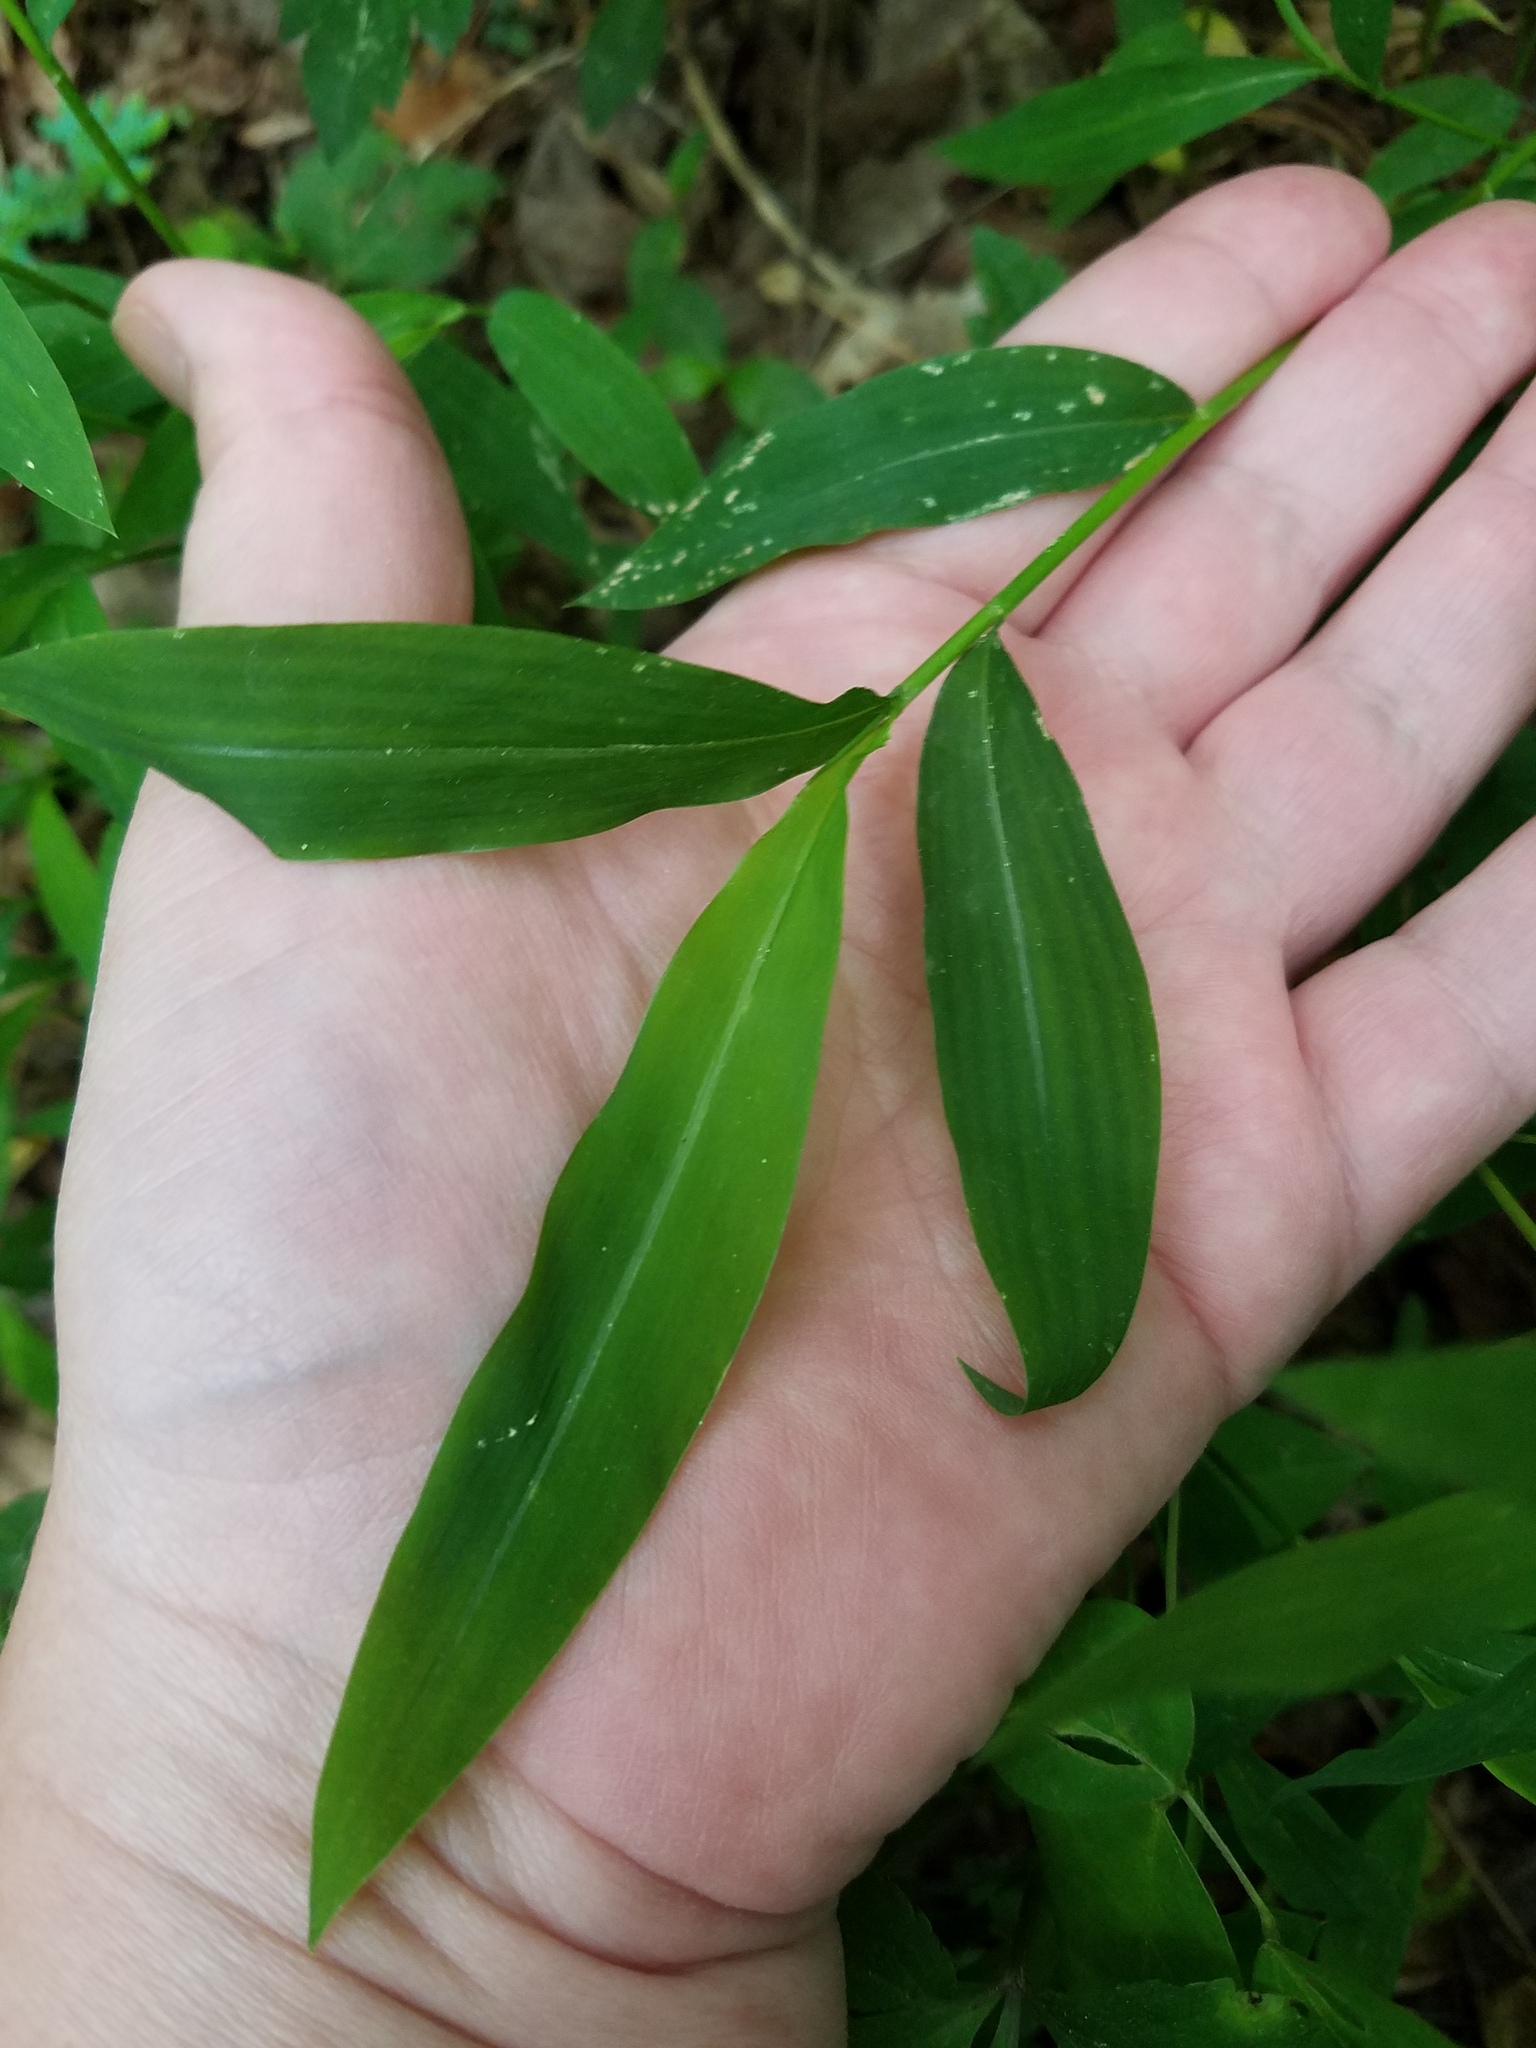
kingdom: Plantae
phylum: Tracheophyta
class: Liliopsida
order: Poales
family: Poaceae
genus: Microstegium
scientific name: Microstegium vimineum
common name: Japanese stiltgrass
